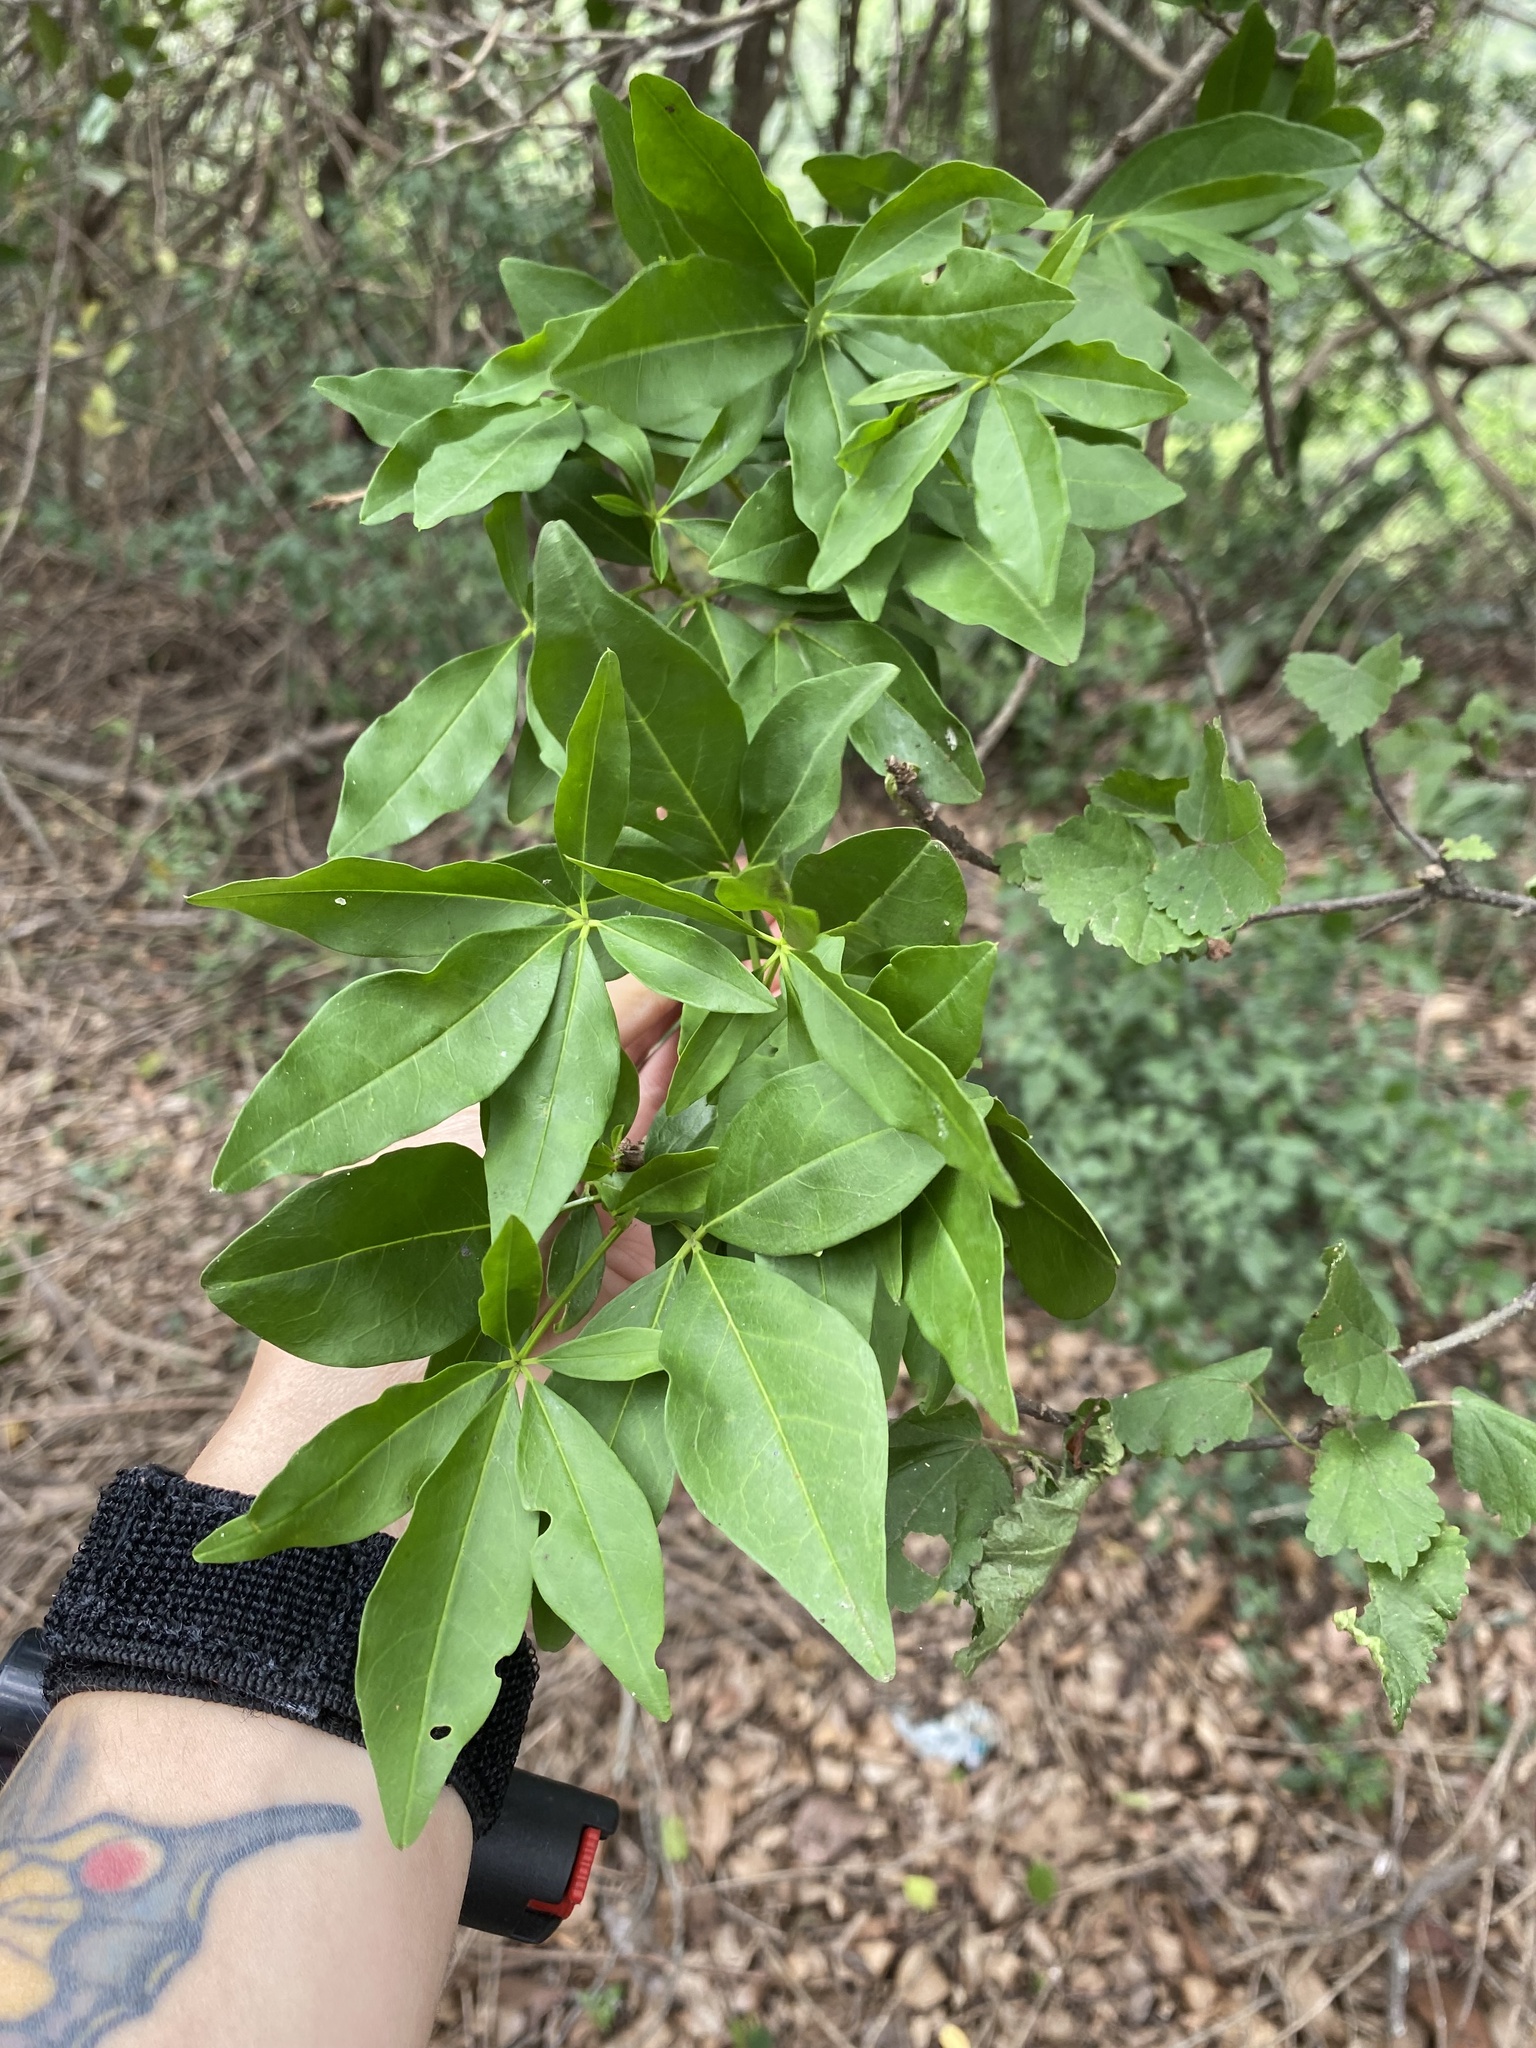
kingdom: Plantae
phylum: Tracheophyta
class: Magnoliopsida
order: Brassicales
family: Capparaceae
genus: Maerua
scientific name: Maerua cafra
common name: Bush maerua
